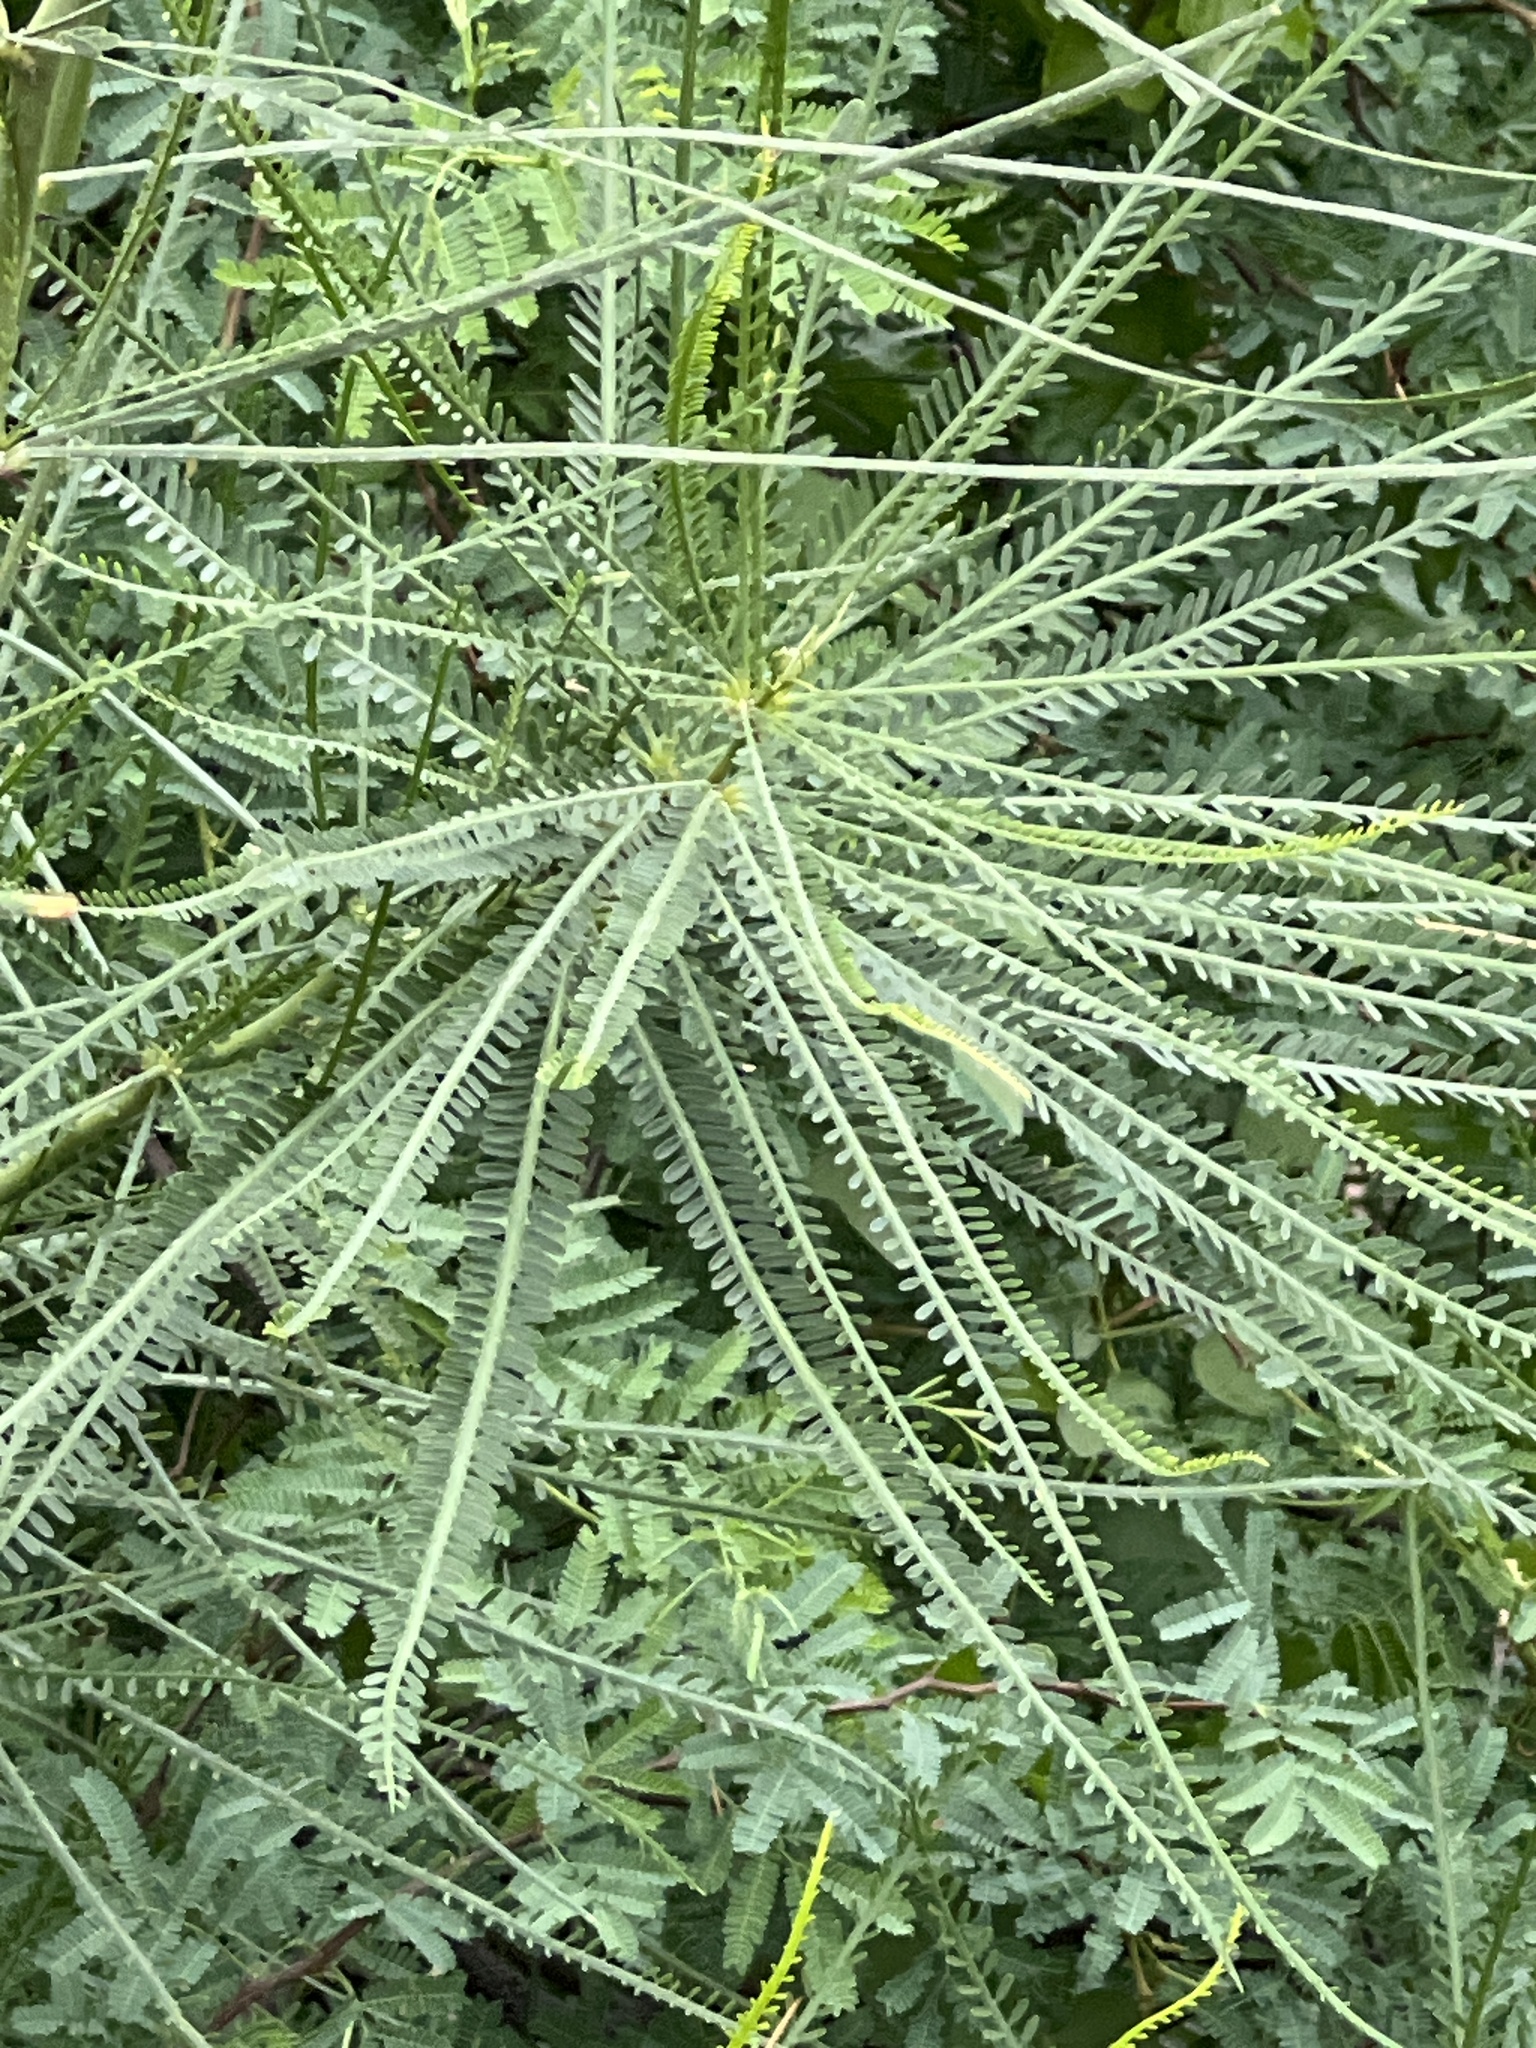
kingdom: Plantae
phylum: Tracheophyta
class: Magnoliopsida
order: Fabales
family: Fabaceae
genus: Parkinsonia
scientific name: Parkinsonia aculeata
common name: Jerusalem thorn
